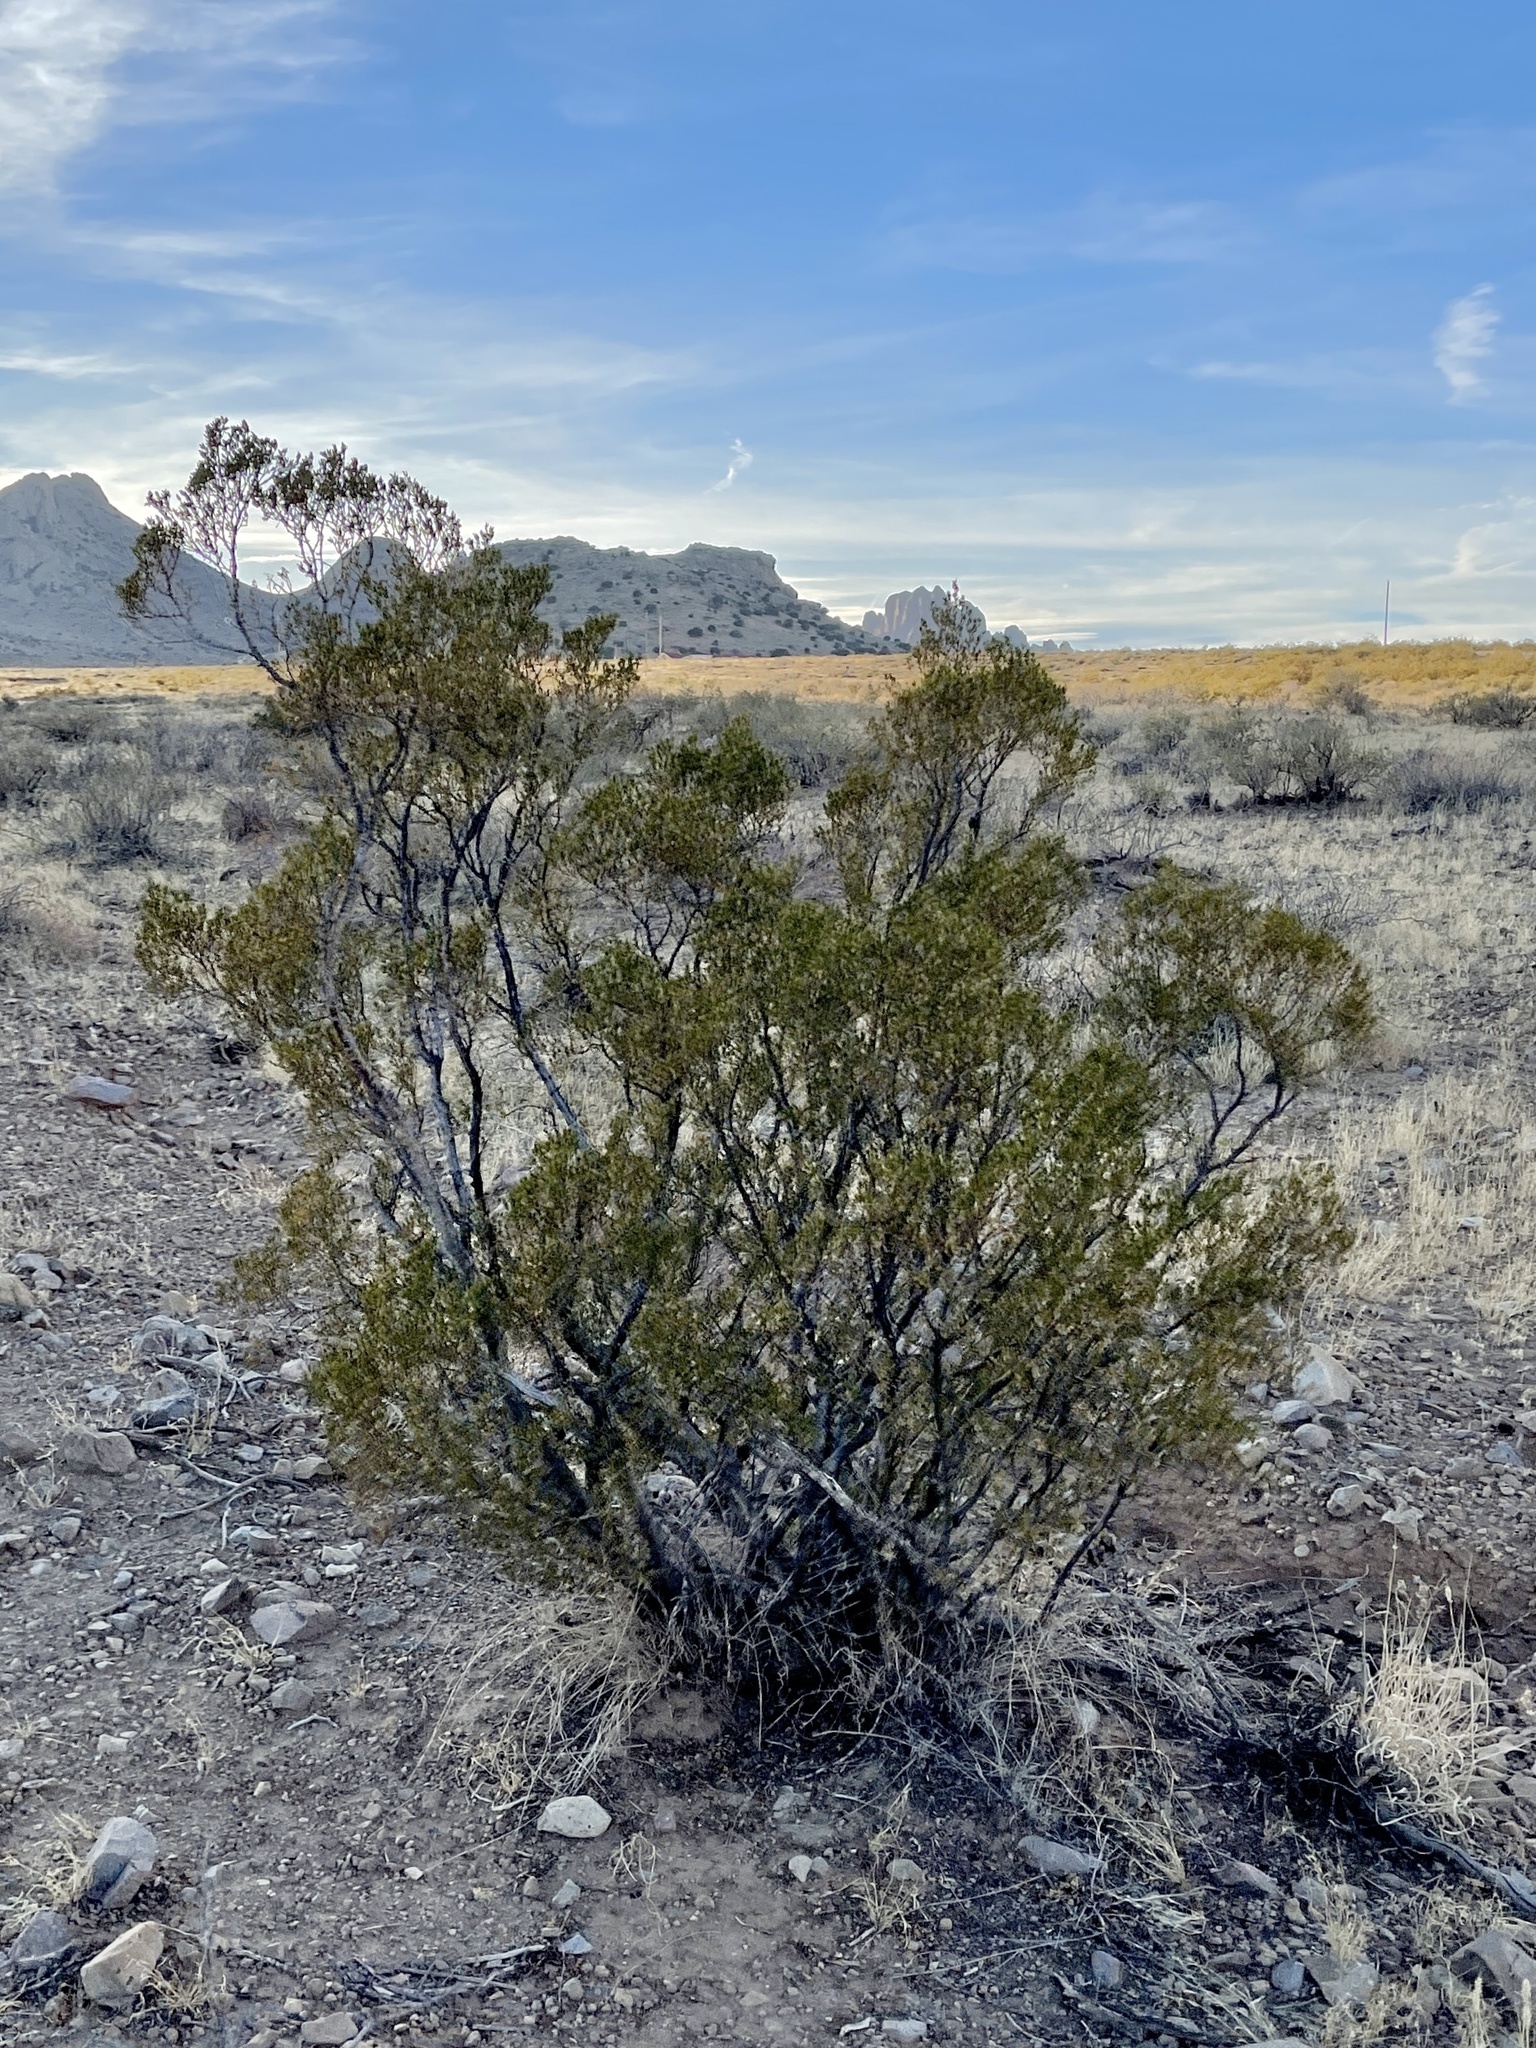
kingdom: Plantae
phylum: Tracheophyta
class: Magnoliopsida
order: Zygophyllales
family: Zygophyllaceae
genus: Larrea
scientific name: Larrea tridentata
